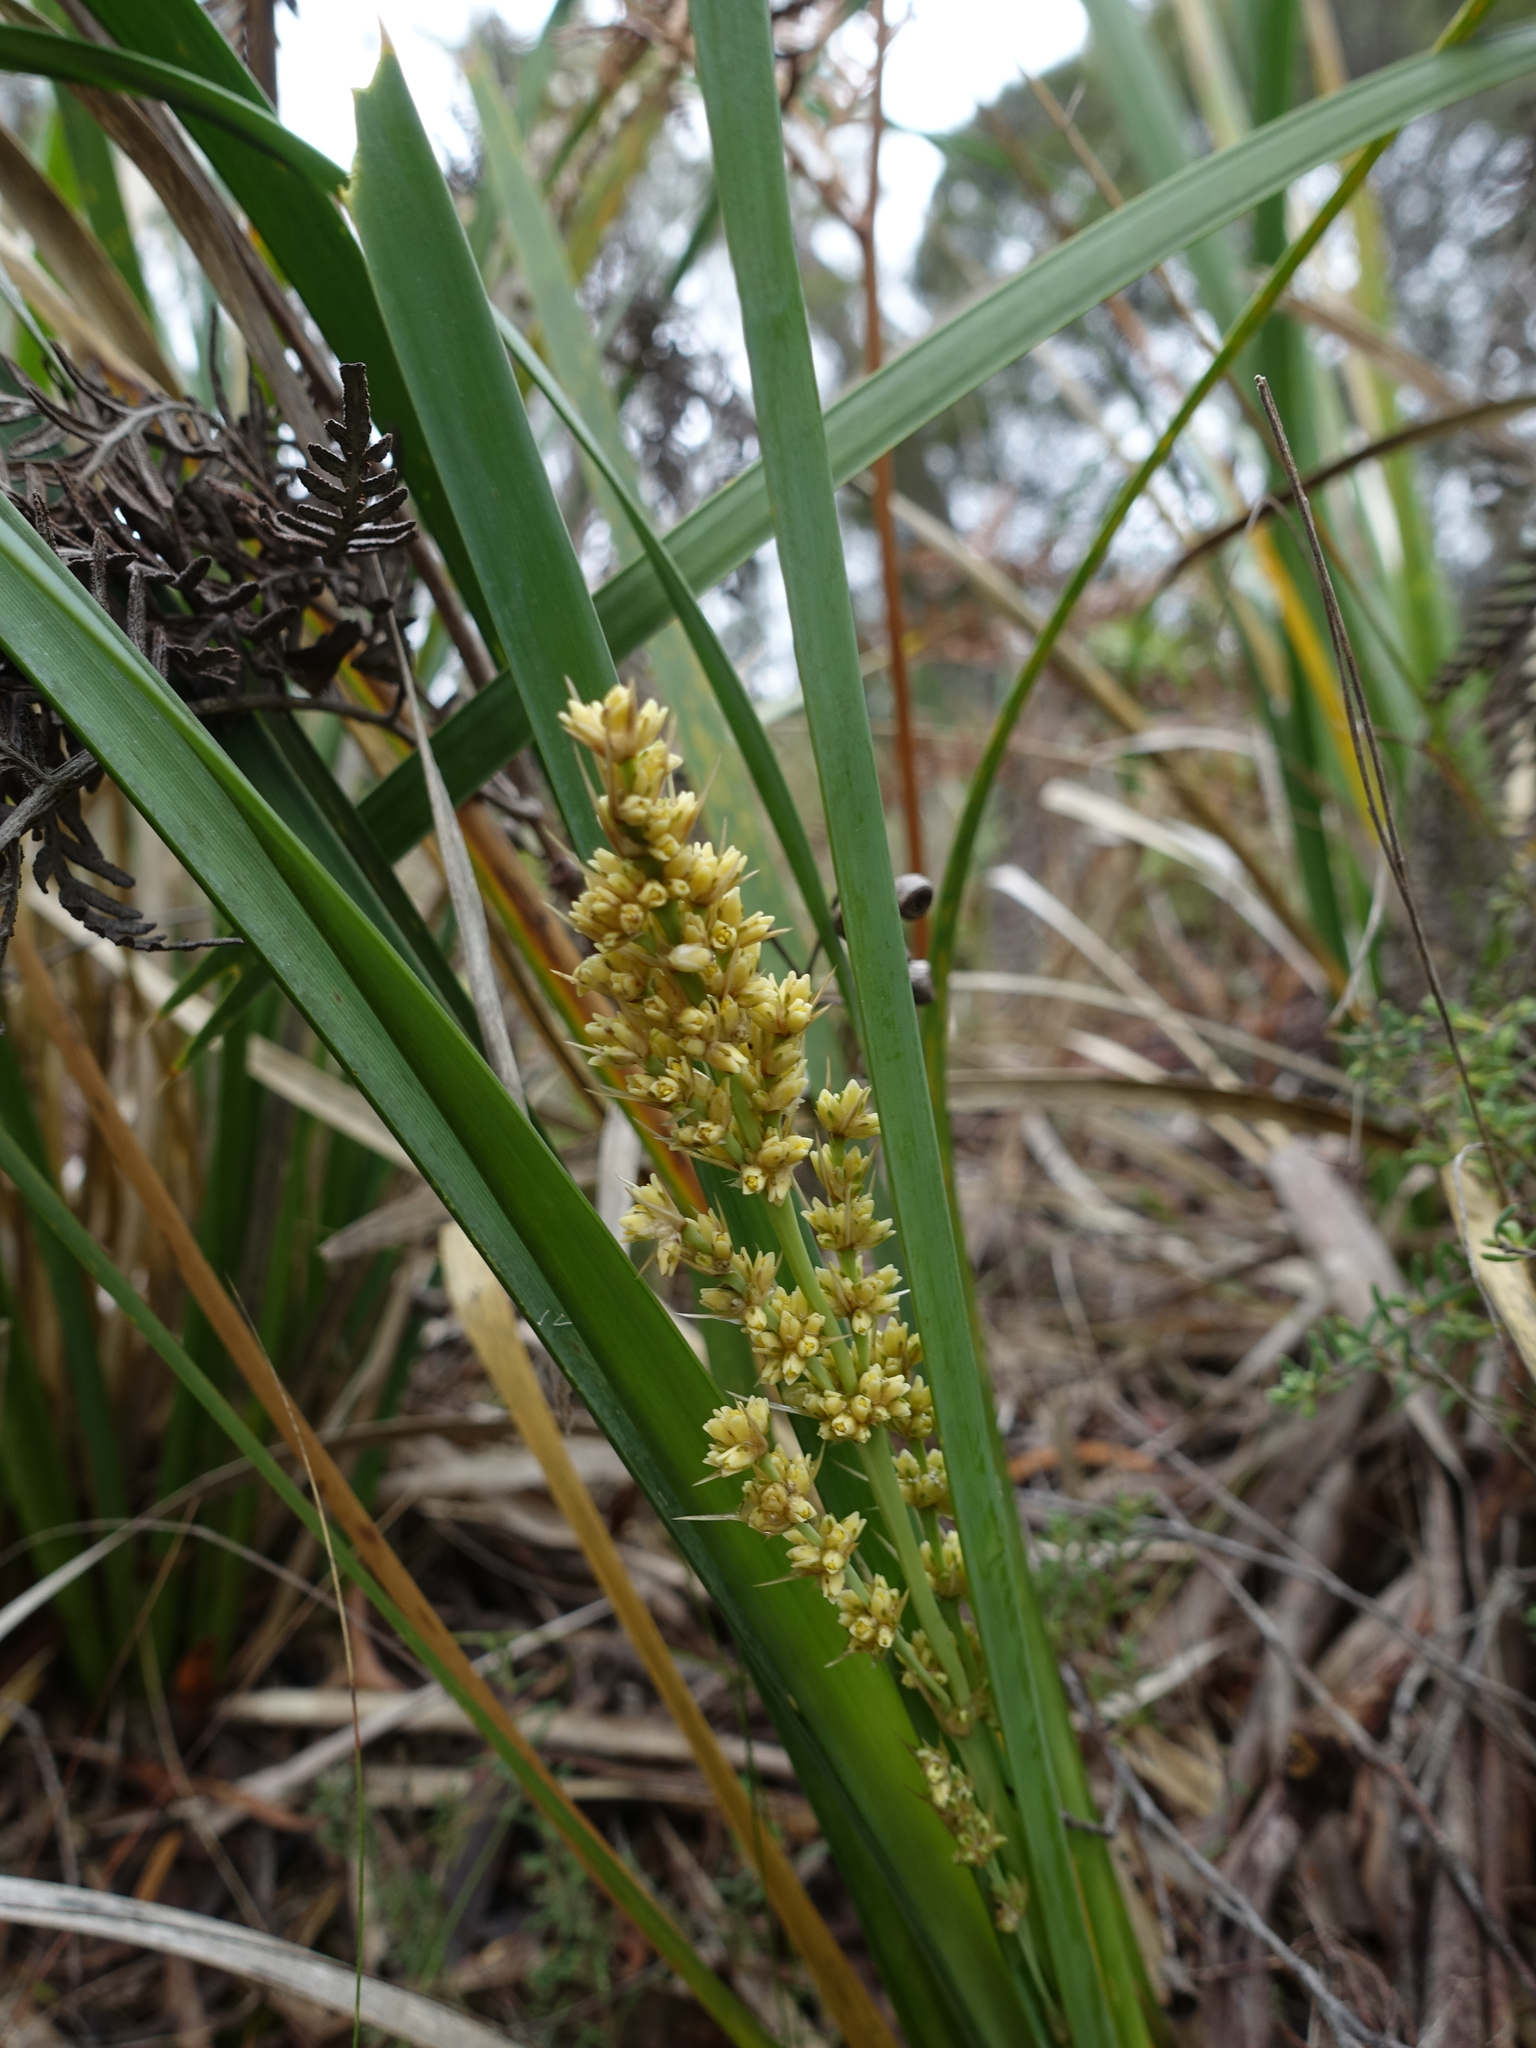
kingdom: Plantae
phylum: Tracheophyta
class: Liliopsida
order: Asparagales
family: Asparagaceae
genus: Lomandra
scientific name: Lomandra longifolia
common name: Longleaf mat-rush
